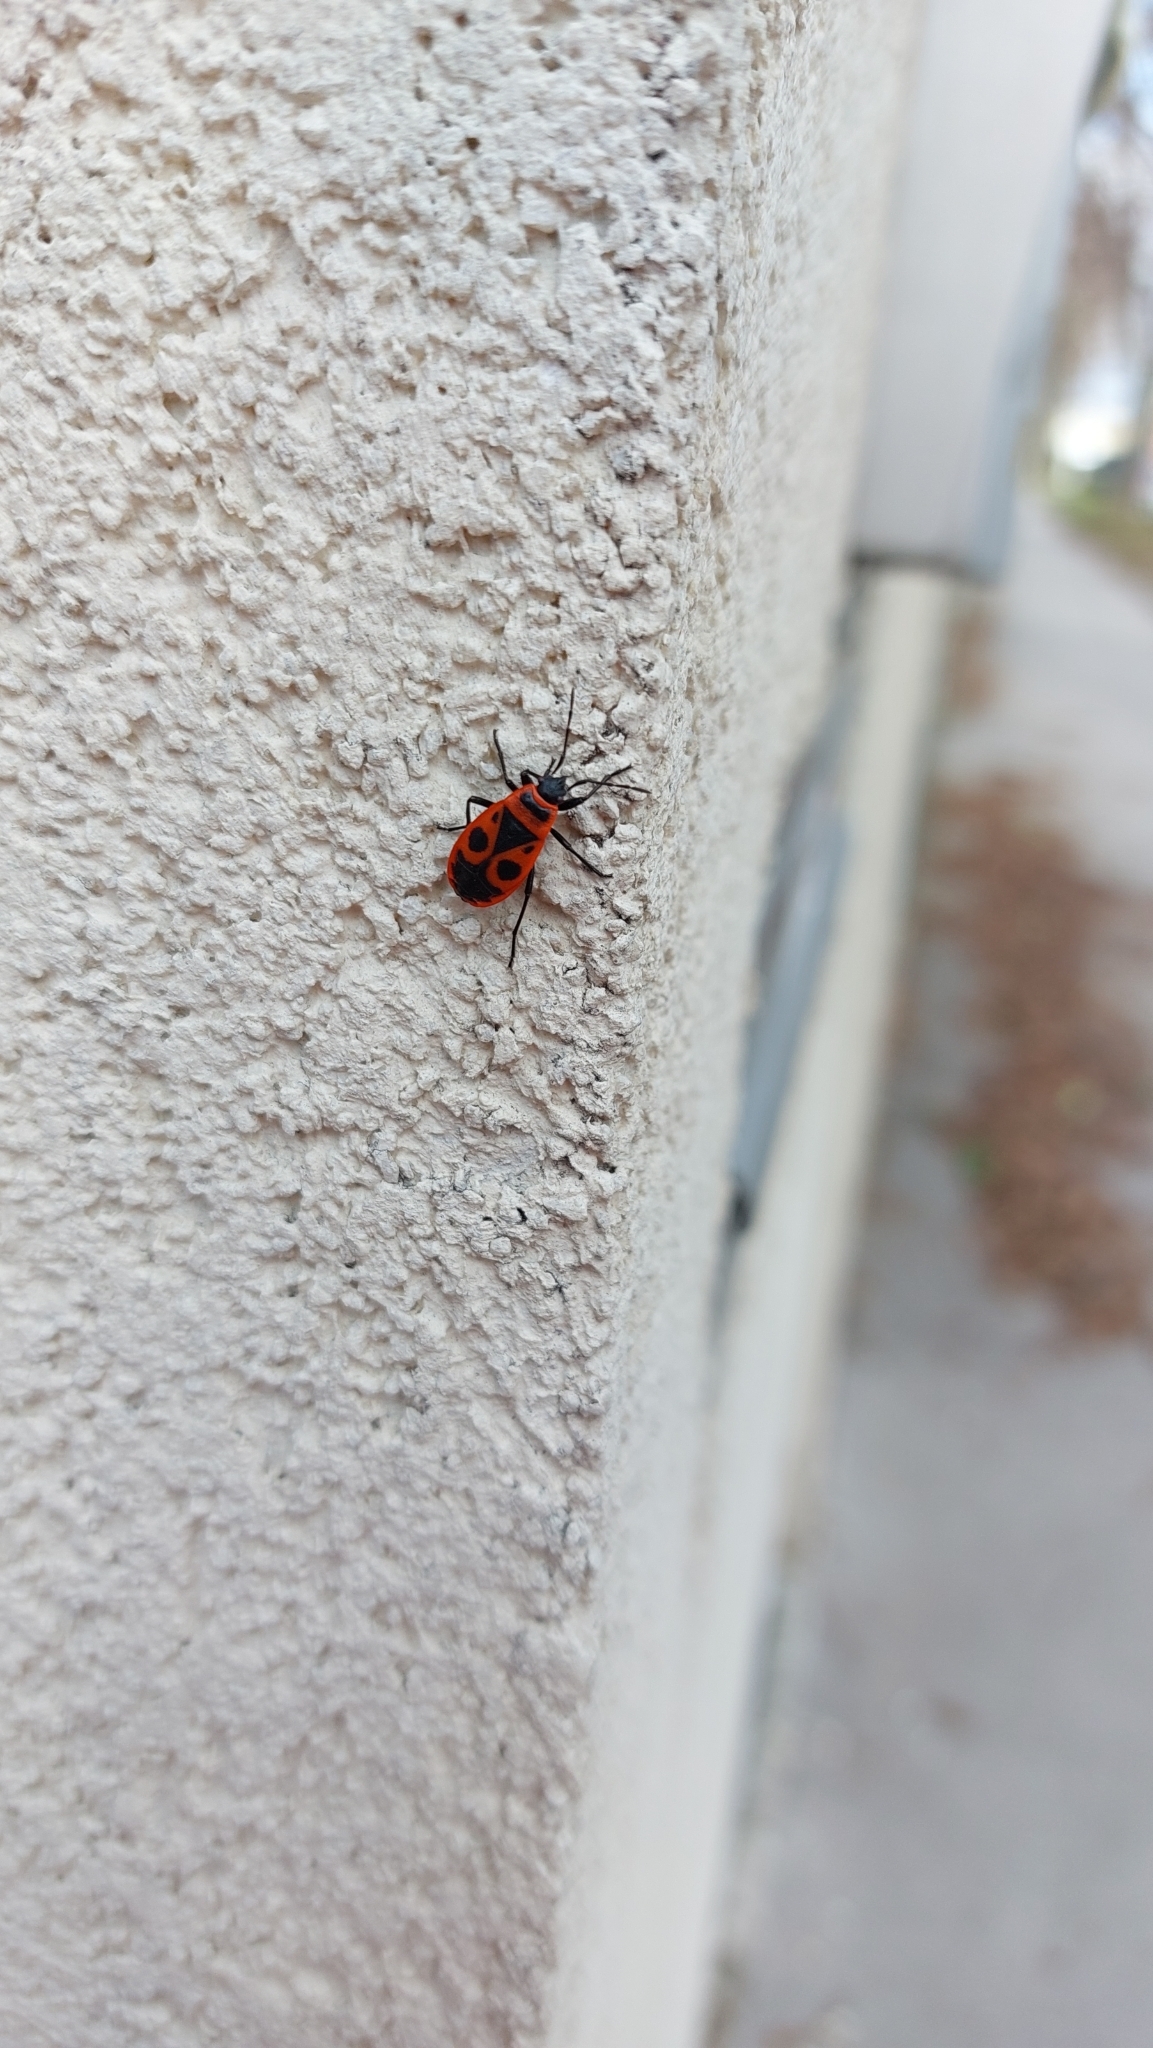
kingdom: Animalia
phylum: Arthropoda
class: Insecta
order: Hemiptera
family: Pyrrhocoridae
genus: Pyrrhocoris
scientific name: Pyrrhocoris apterus
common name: Firebug
